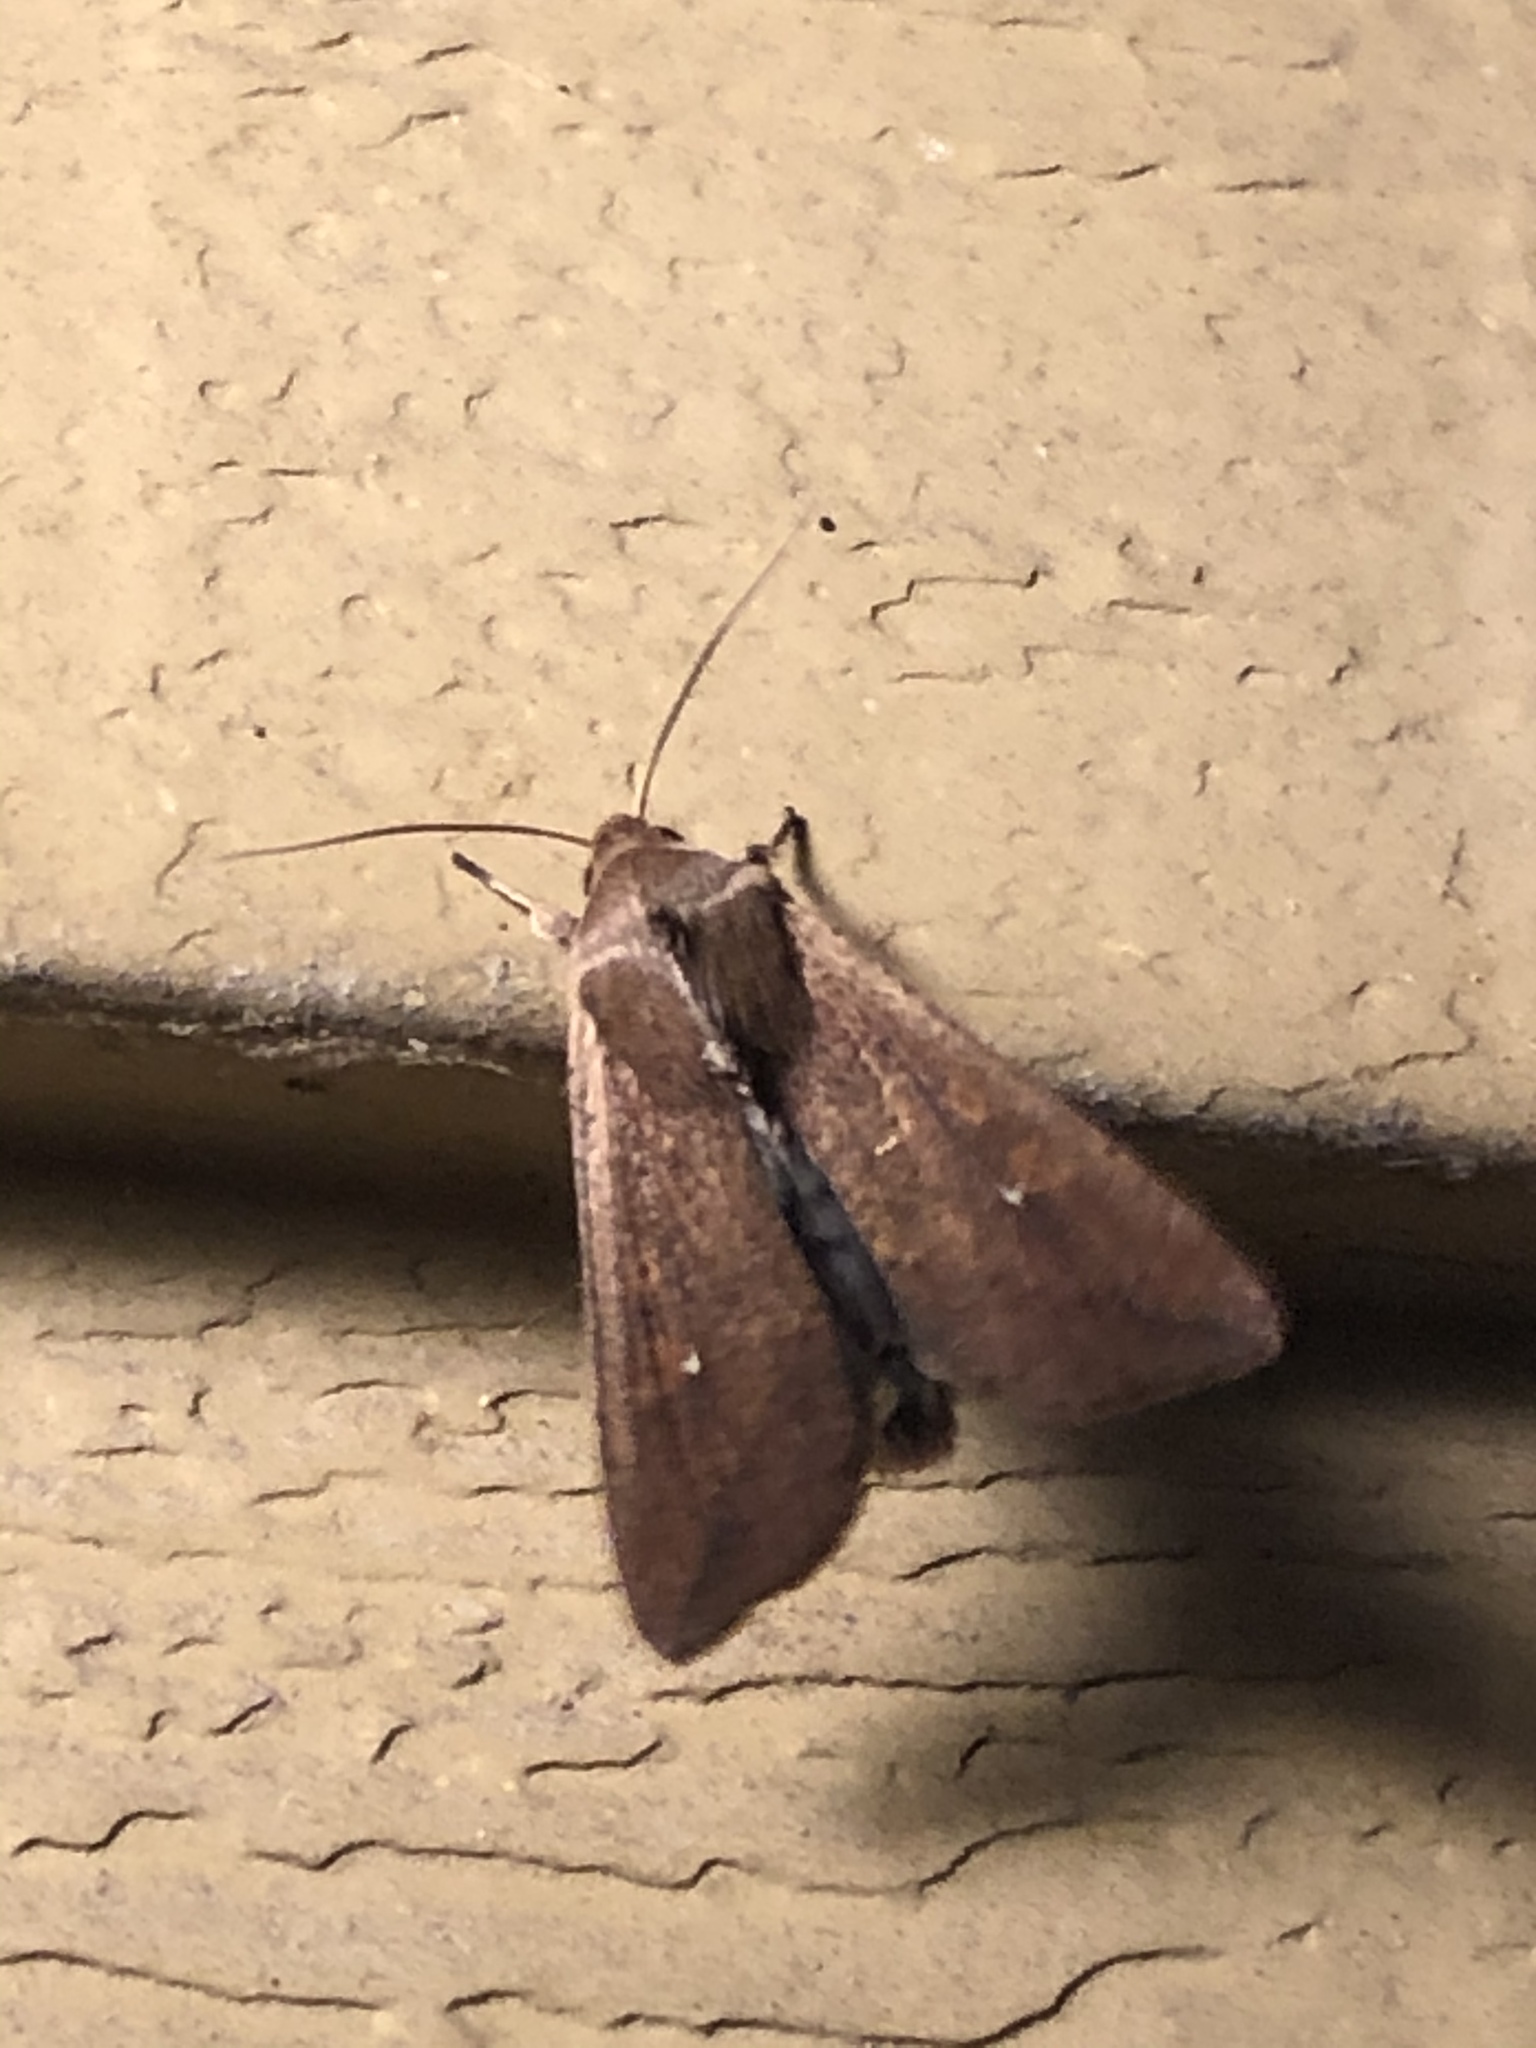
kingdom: Animalia
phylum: Arthropoda
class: Insecta
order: Lepidoptera
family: Noctuidae
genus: Mythimna
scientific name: Mythimna unipuncta
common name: White-speck
